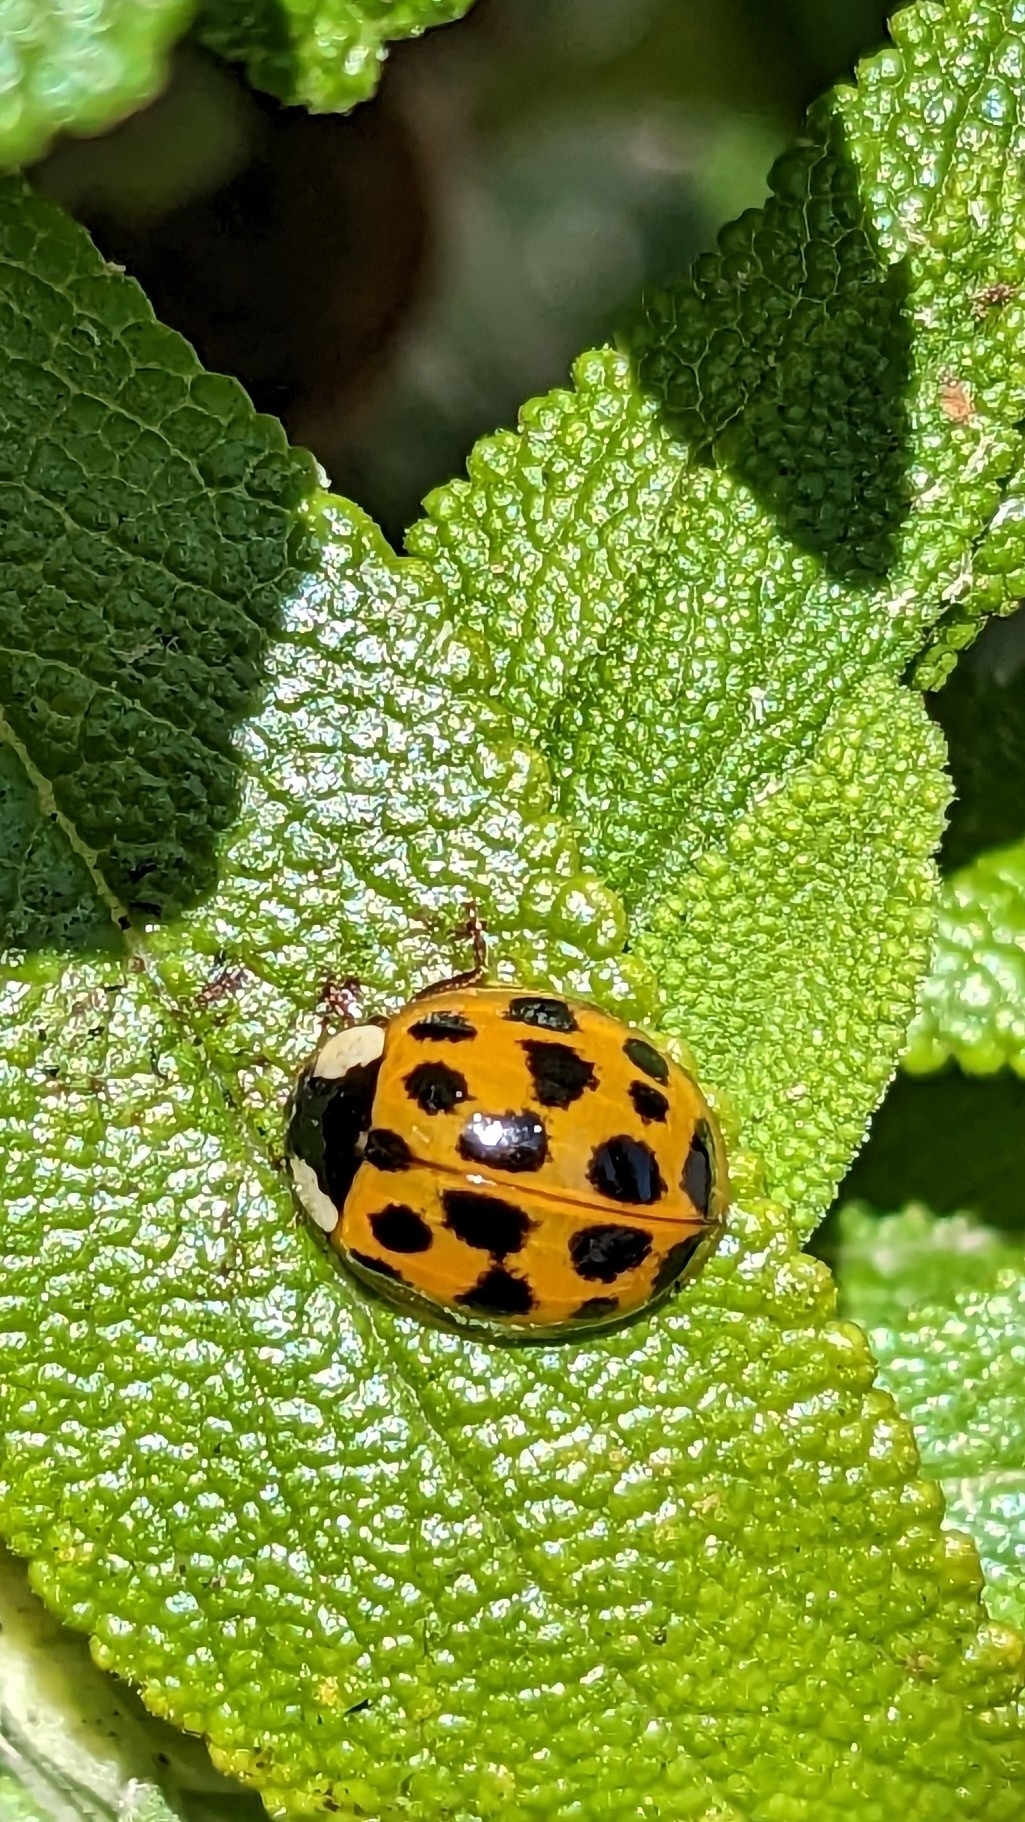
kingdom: Animalia
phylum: Arthropoda
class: Insecta
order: Coleoptera
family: Coccinellidae
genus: Harmonia
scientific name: Harmonia axyridis
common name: Harlequin ladybird
